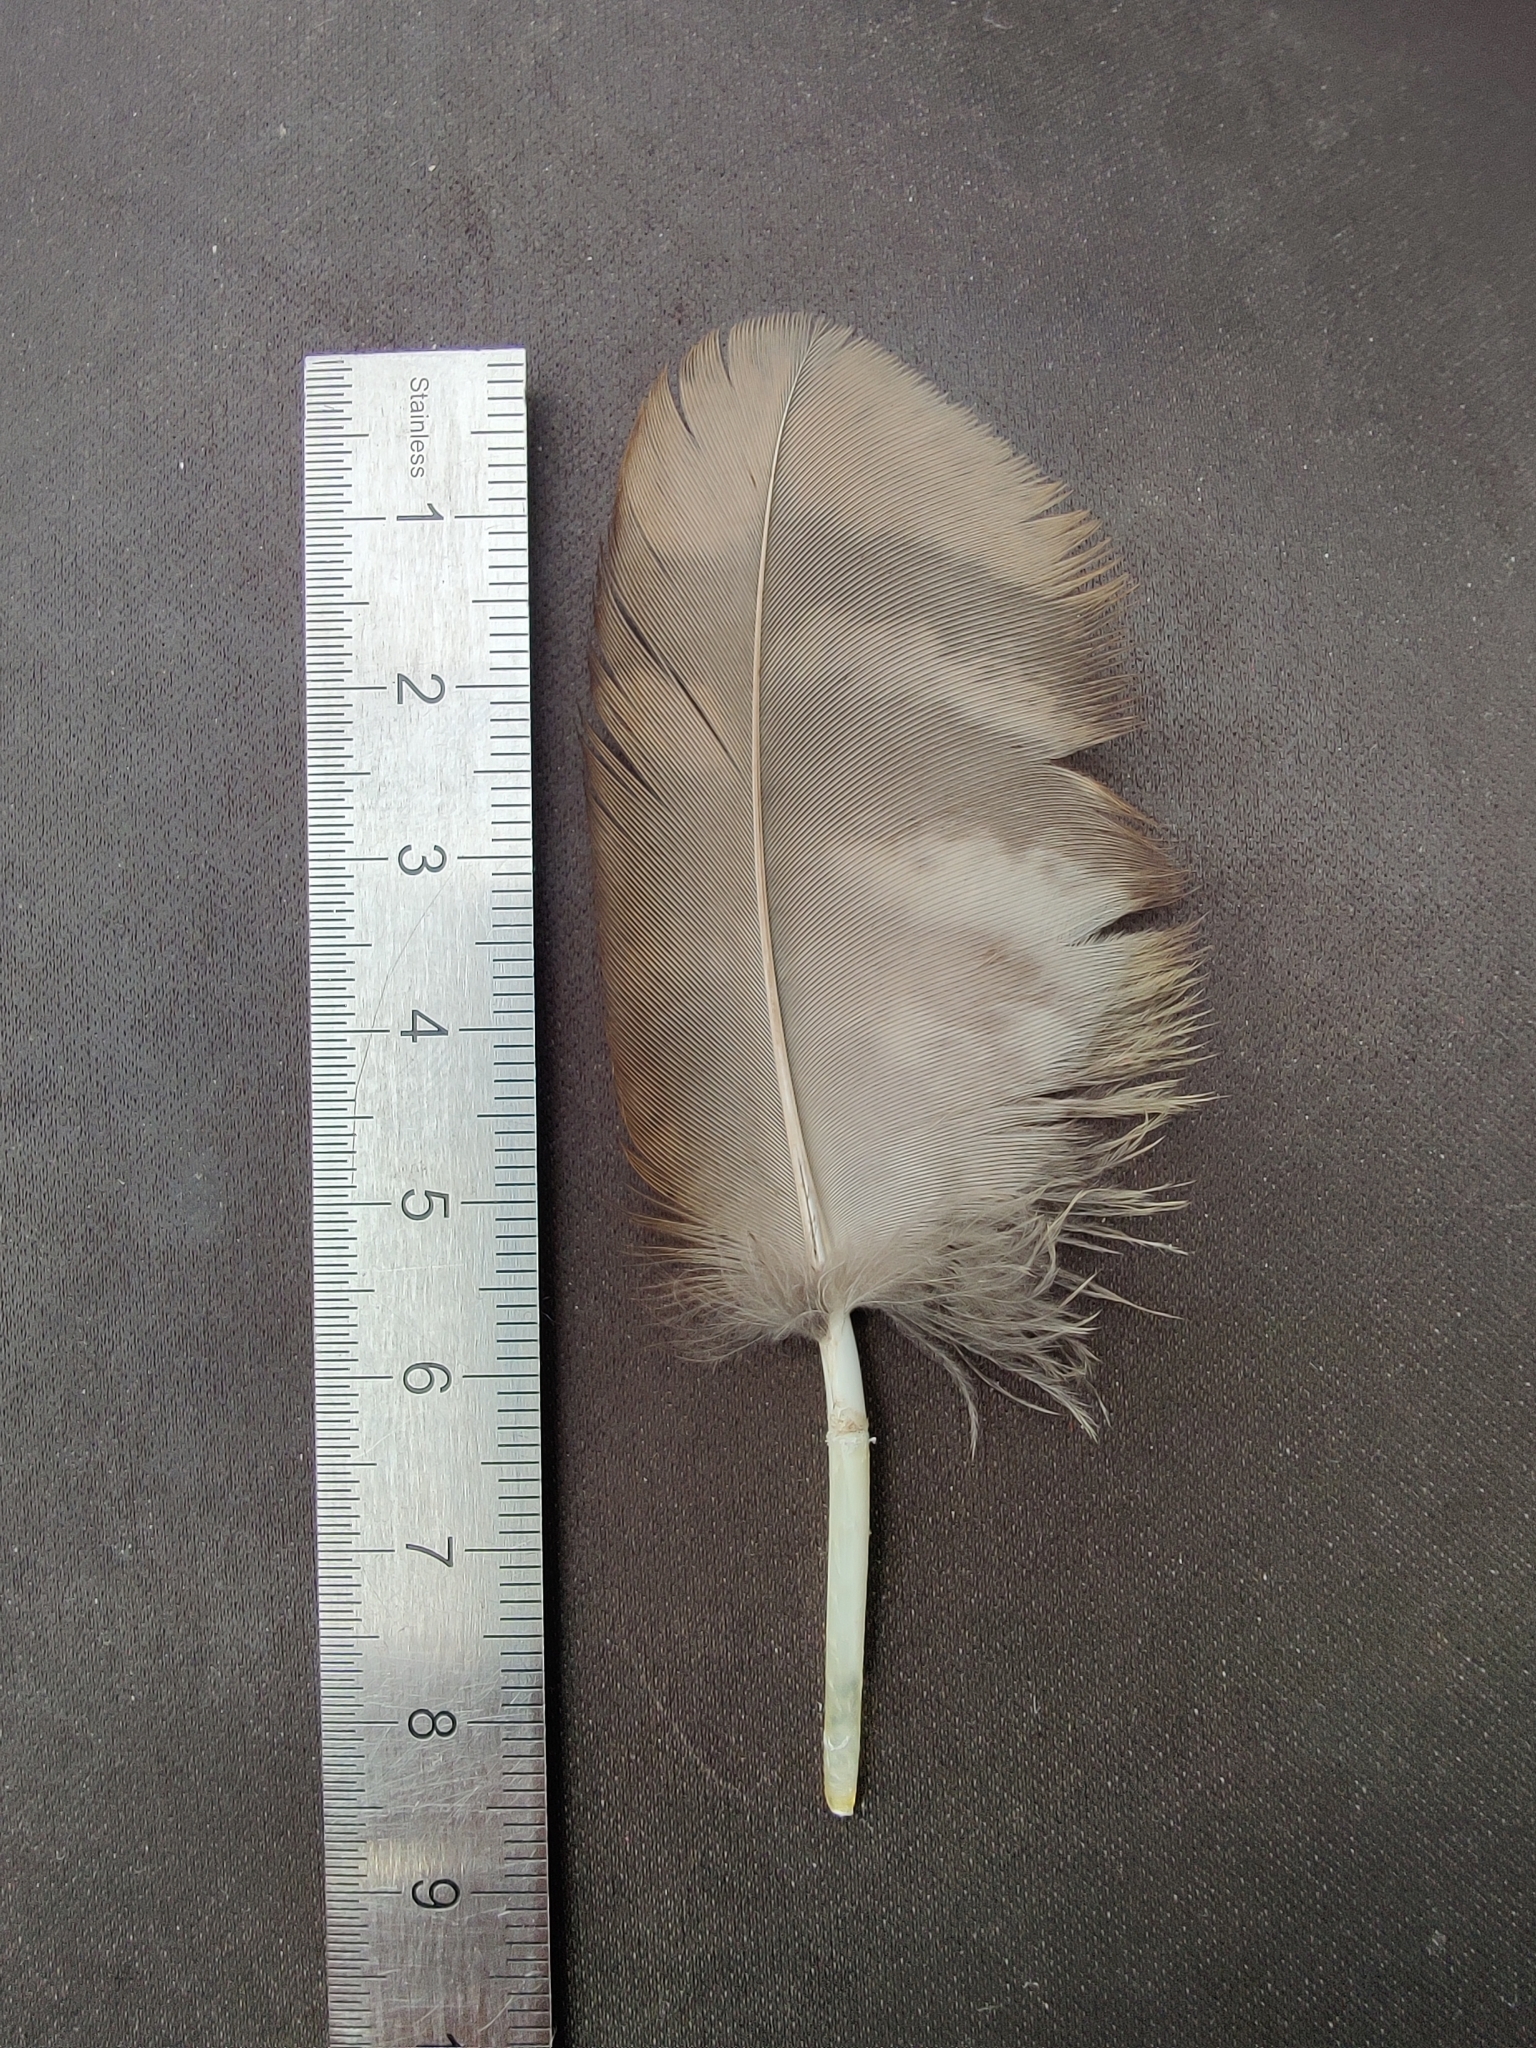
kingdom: Animalia
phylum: Chordata
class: Aves
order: Strigiformes
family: Strigidae
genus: Strix
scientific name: Strix aluco
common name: Tawny owl
